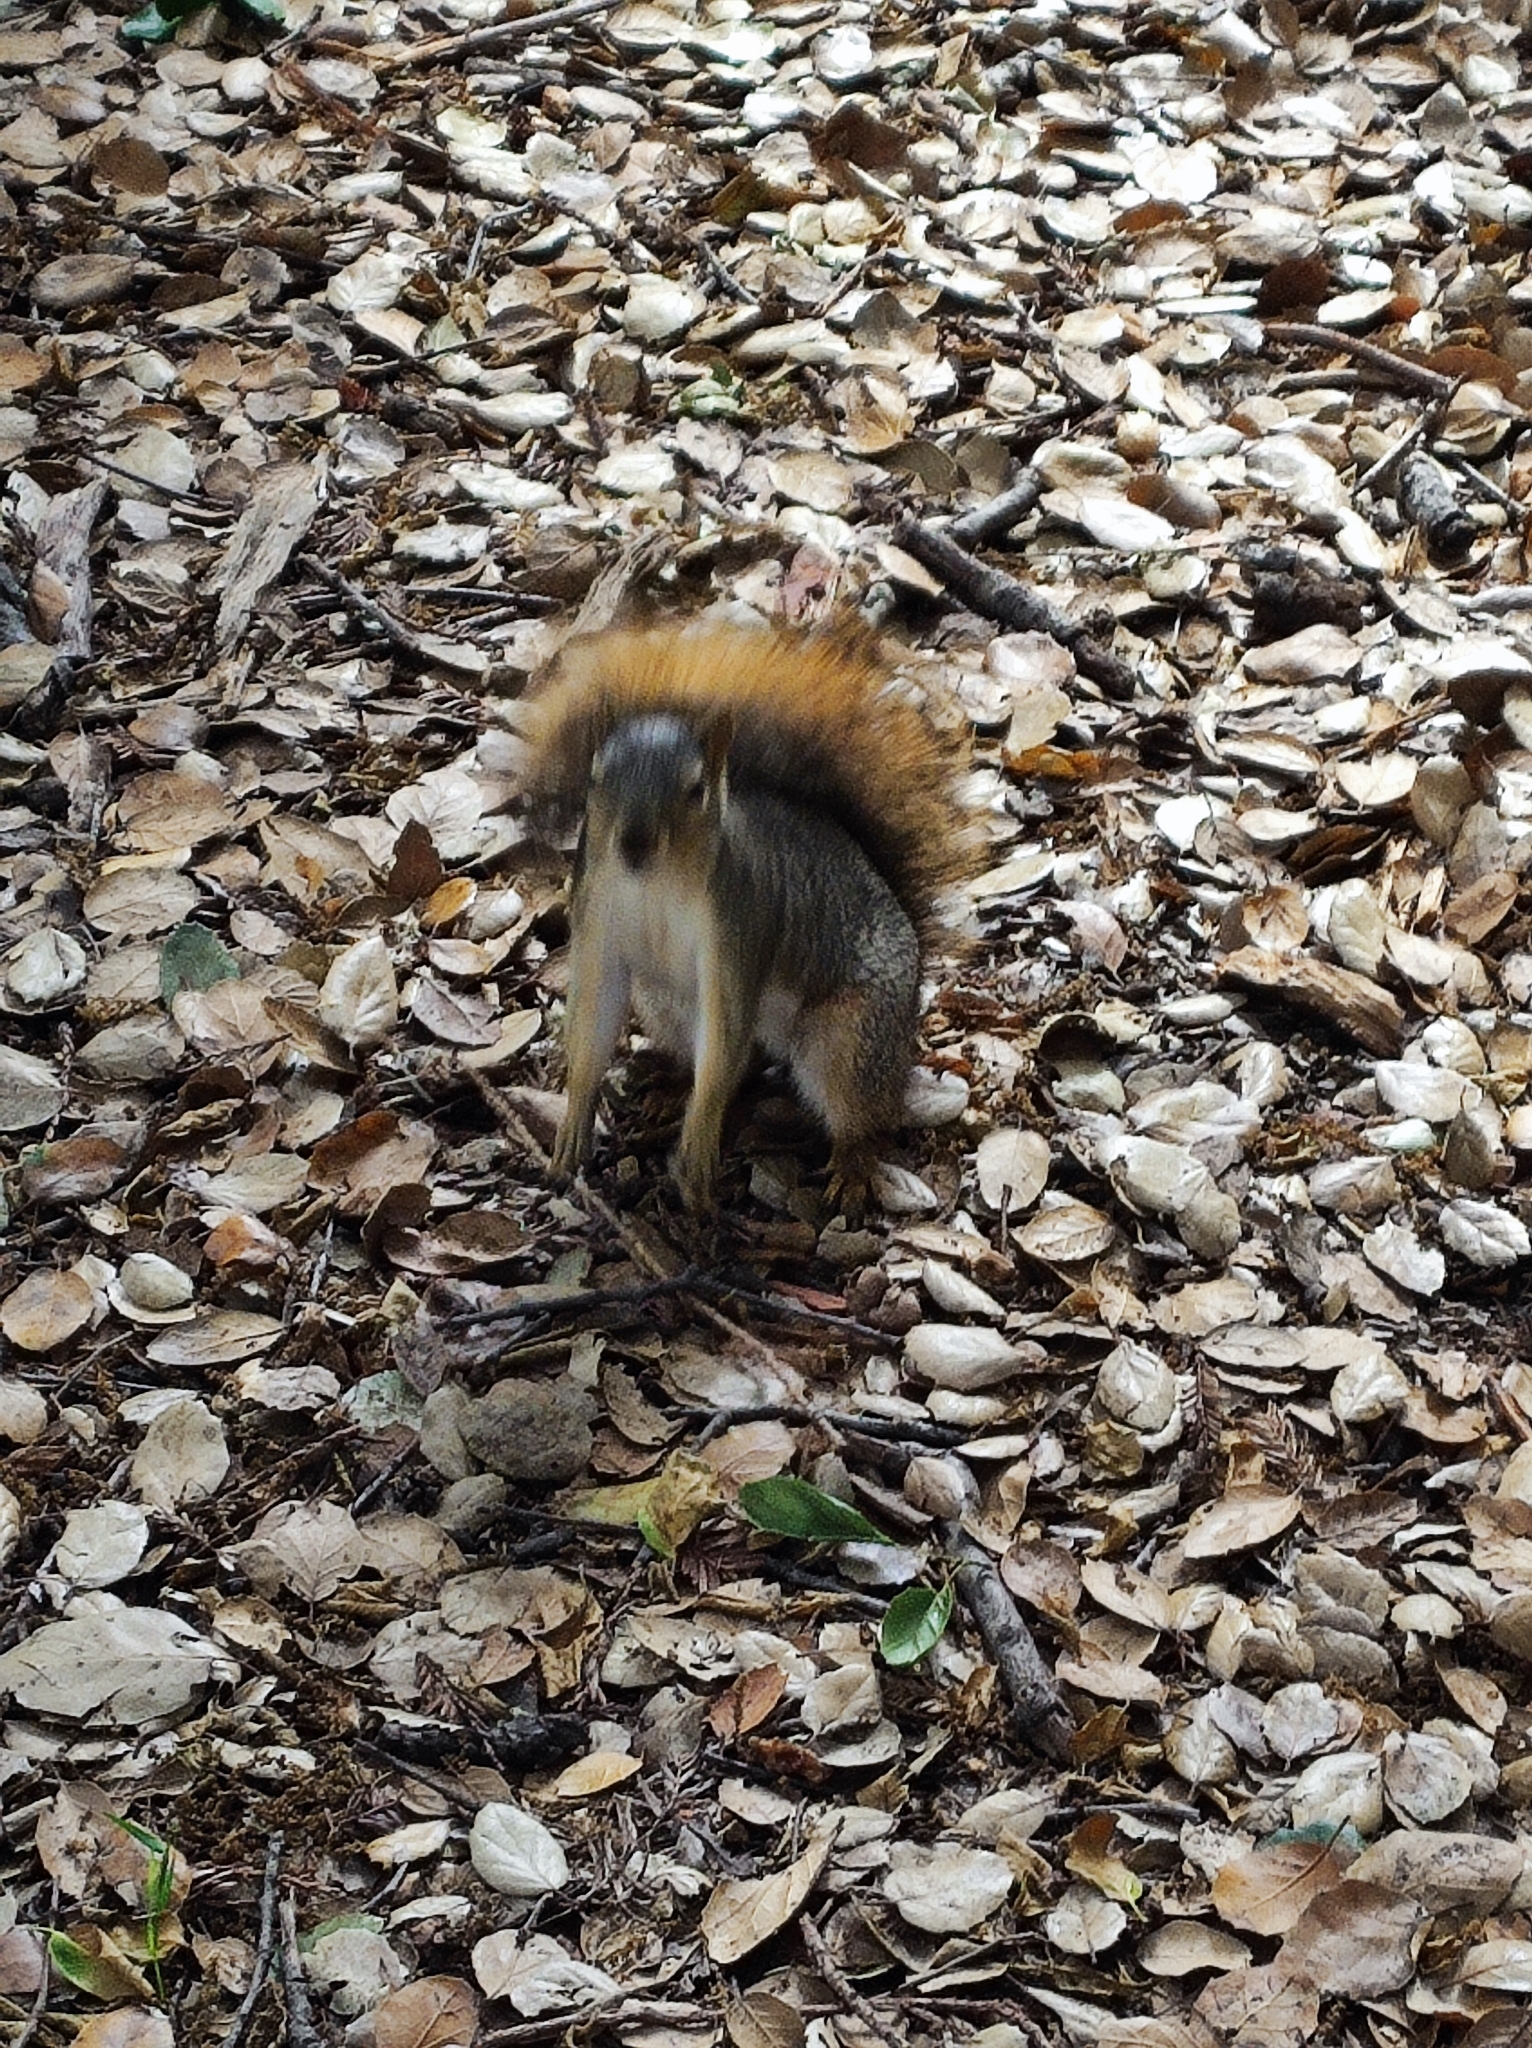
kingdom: Animalia
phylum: Chordata
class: Mammalia
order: Rodentia
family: Sciuridae
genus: Sciurus
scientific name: Sciurus niger
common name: Fox squirrel
